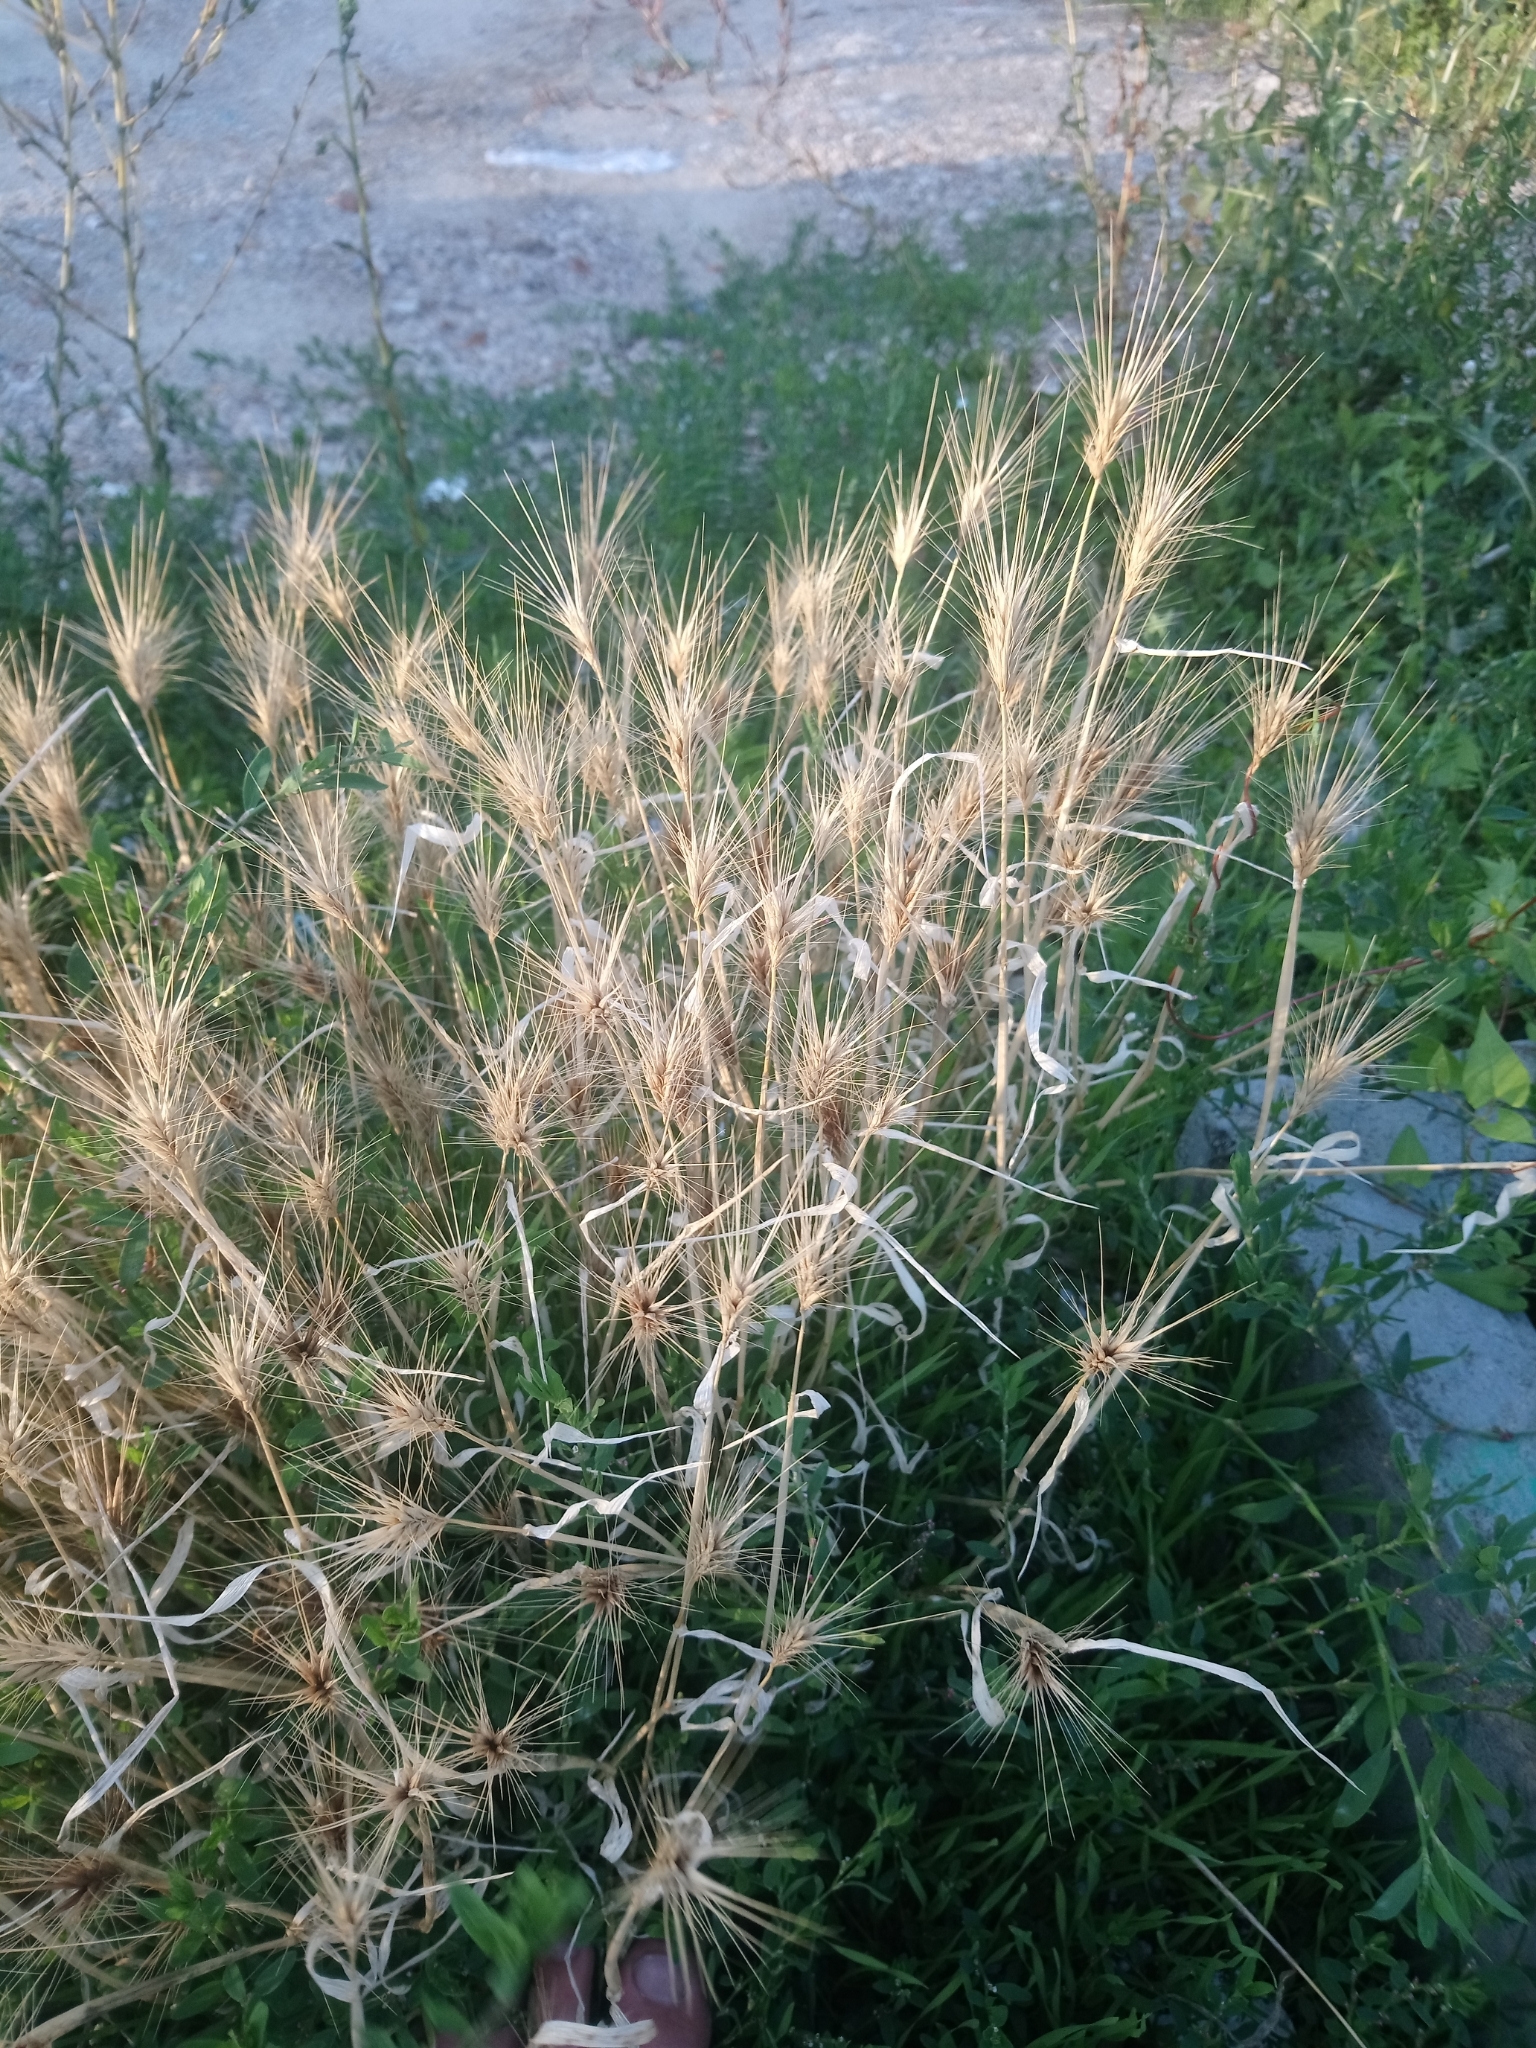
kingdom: Plantae
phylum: Tracheophyta
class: Liliopsida
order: Poales
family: Poaceae
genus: Hordeum
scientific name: Hordeum murinum
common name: Wall barley
